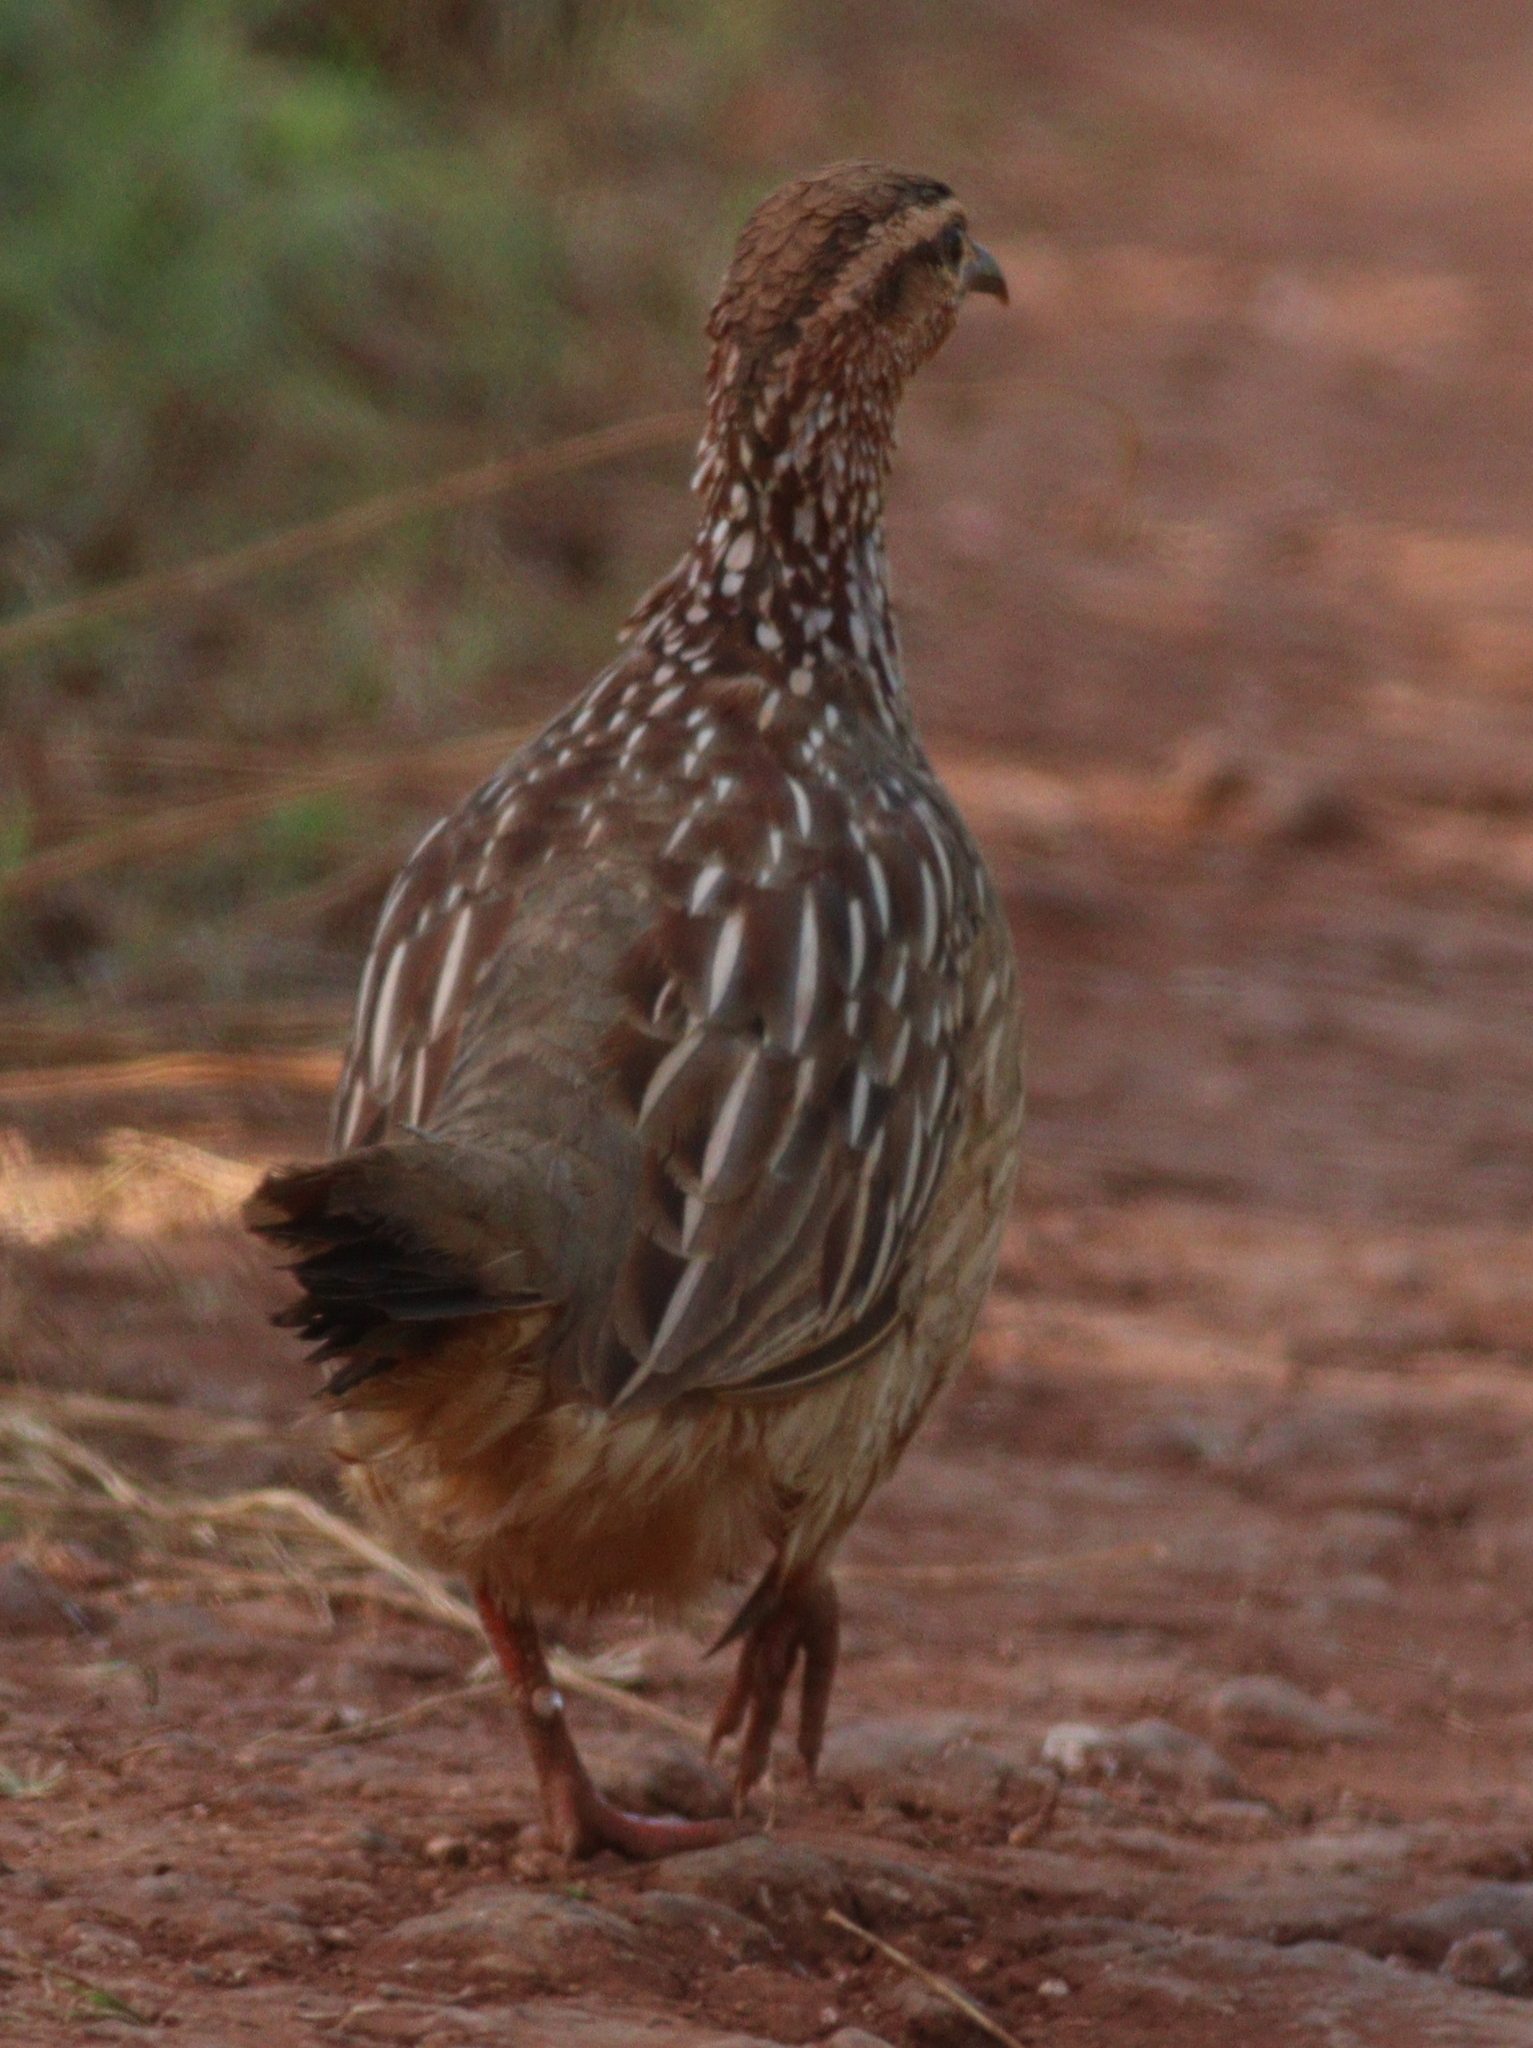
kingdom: Animalia
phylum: Chordata
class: Aves
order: Galliformes
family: Phasianidae
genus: Ortygornis
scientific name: Ortygornis sephaena
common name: Crested francolin
